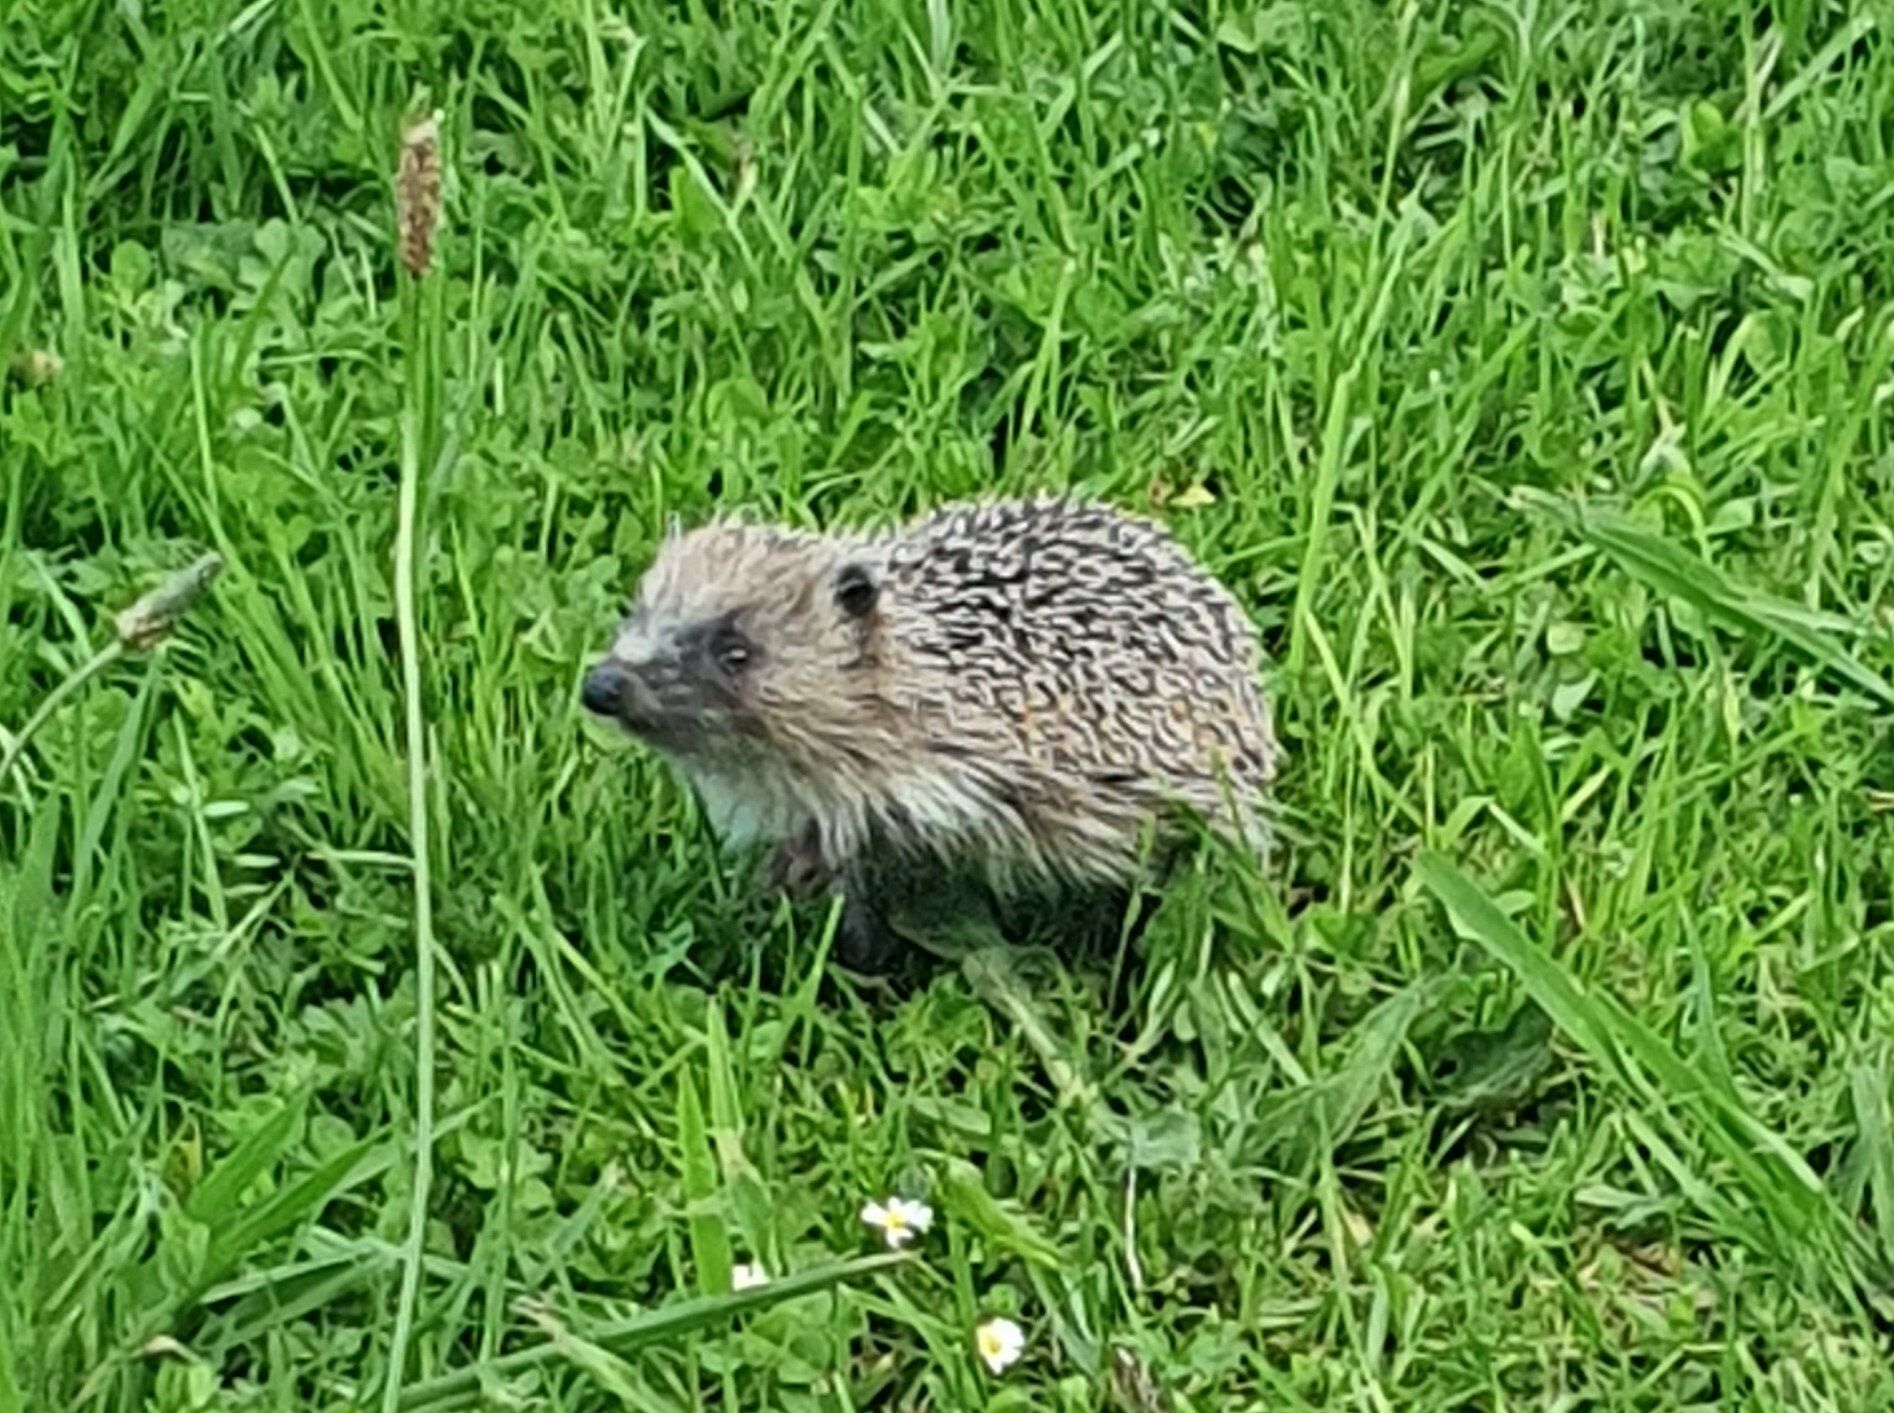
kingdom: Animalia
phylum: Chordata
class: Mammalia
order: Erinaceomorpha
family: Erinaceidae
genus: Erinaceus
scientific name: Erinaceus europaeus
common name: West european hedgehog
